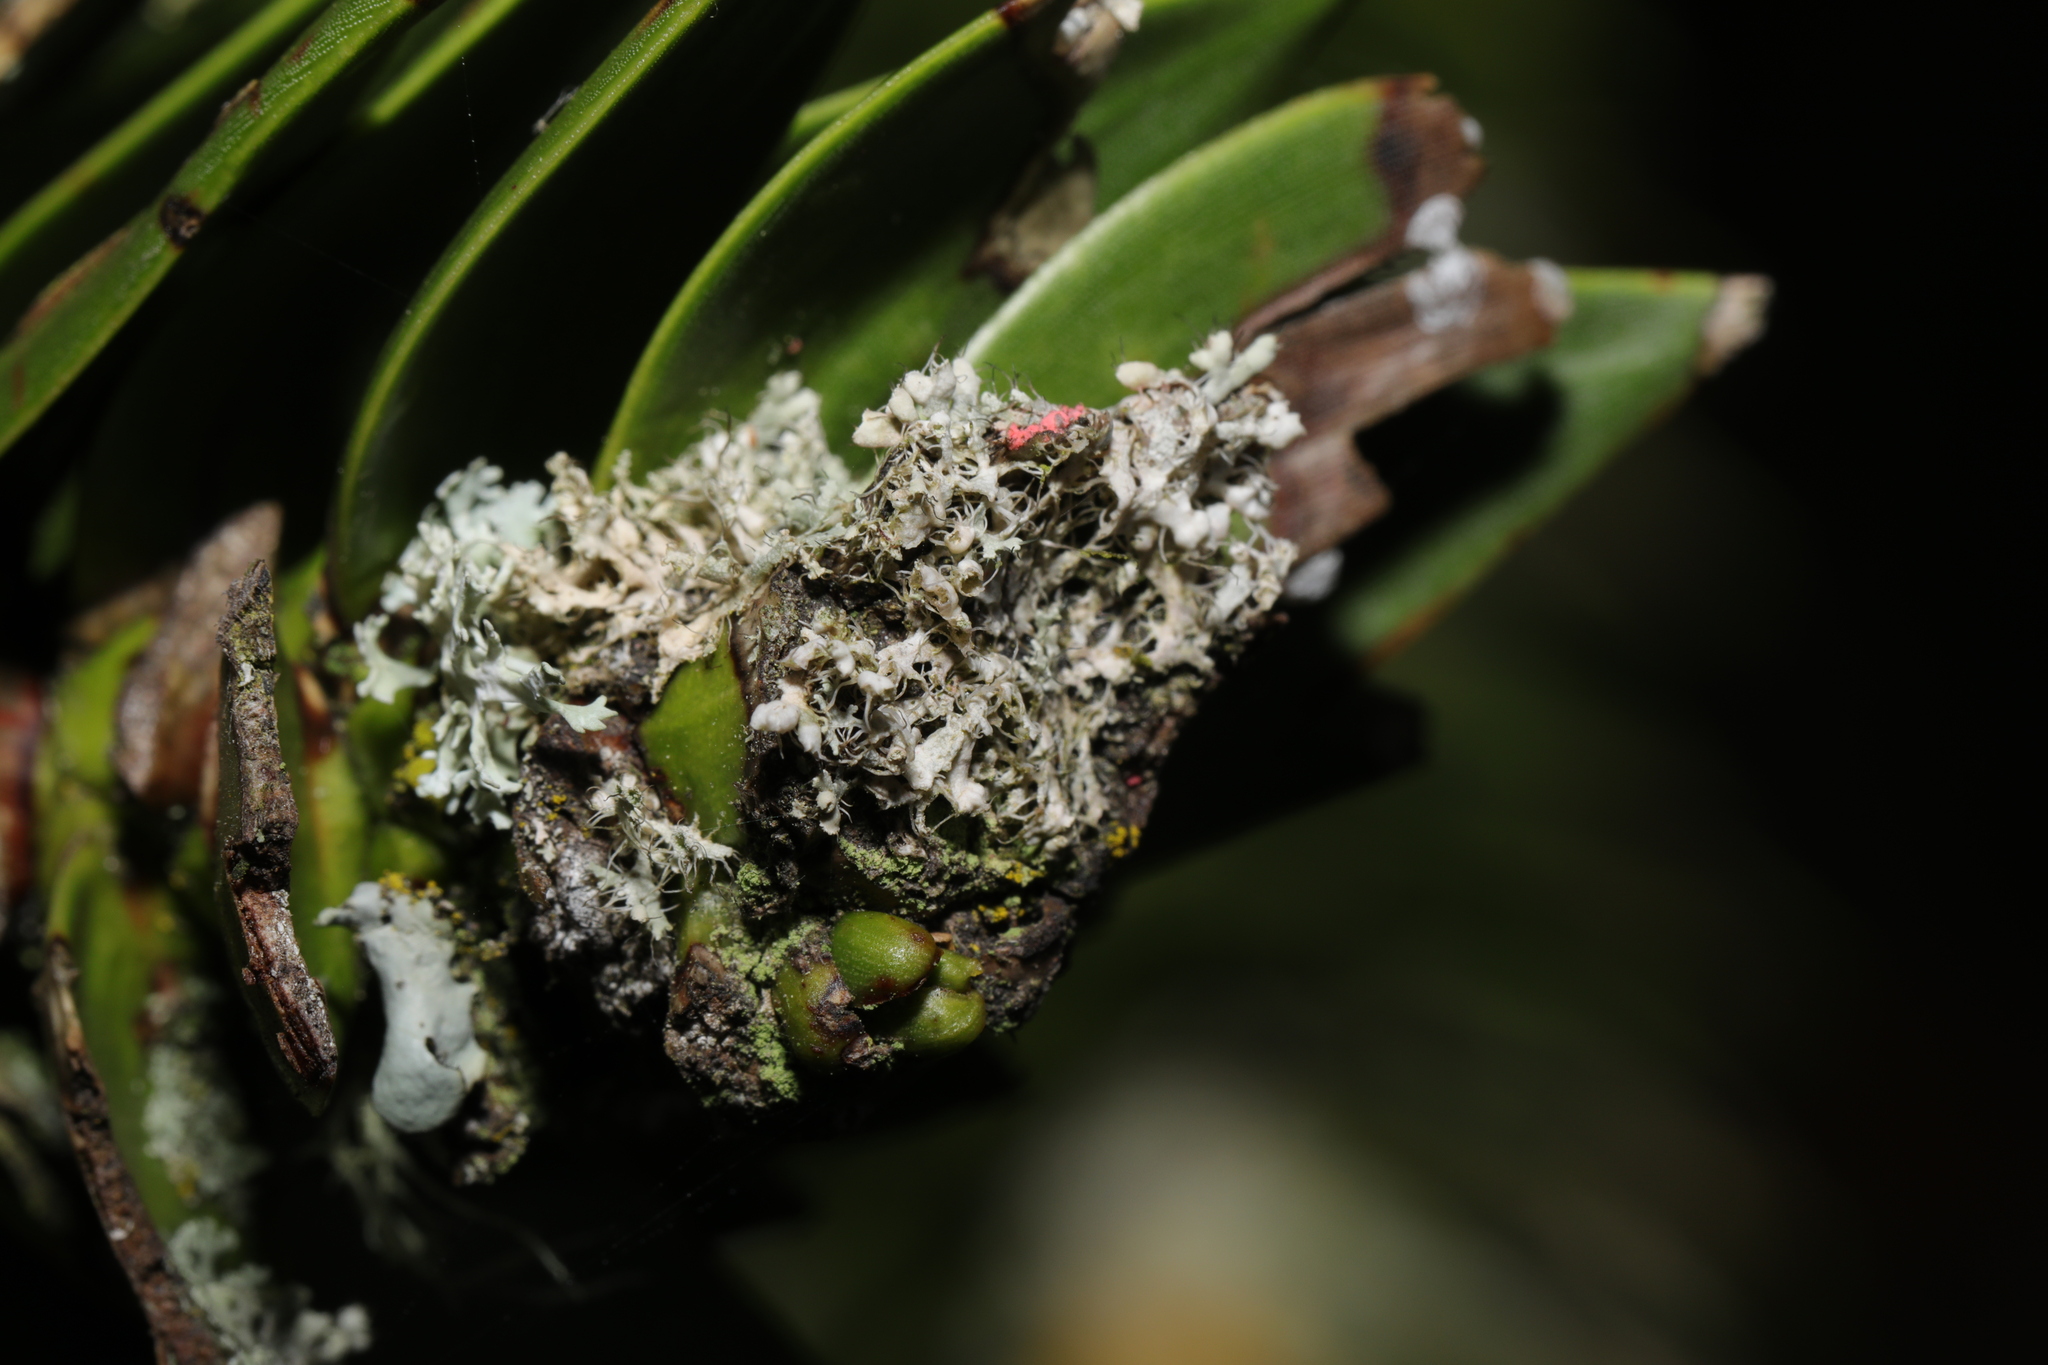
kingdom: Fungi
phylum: Ascomycota
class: Lecanoromycetes
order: Caliciales
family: Physciaceae
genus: Physcia
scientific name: Physcia adscendens
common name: Hooded rosette lichen
